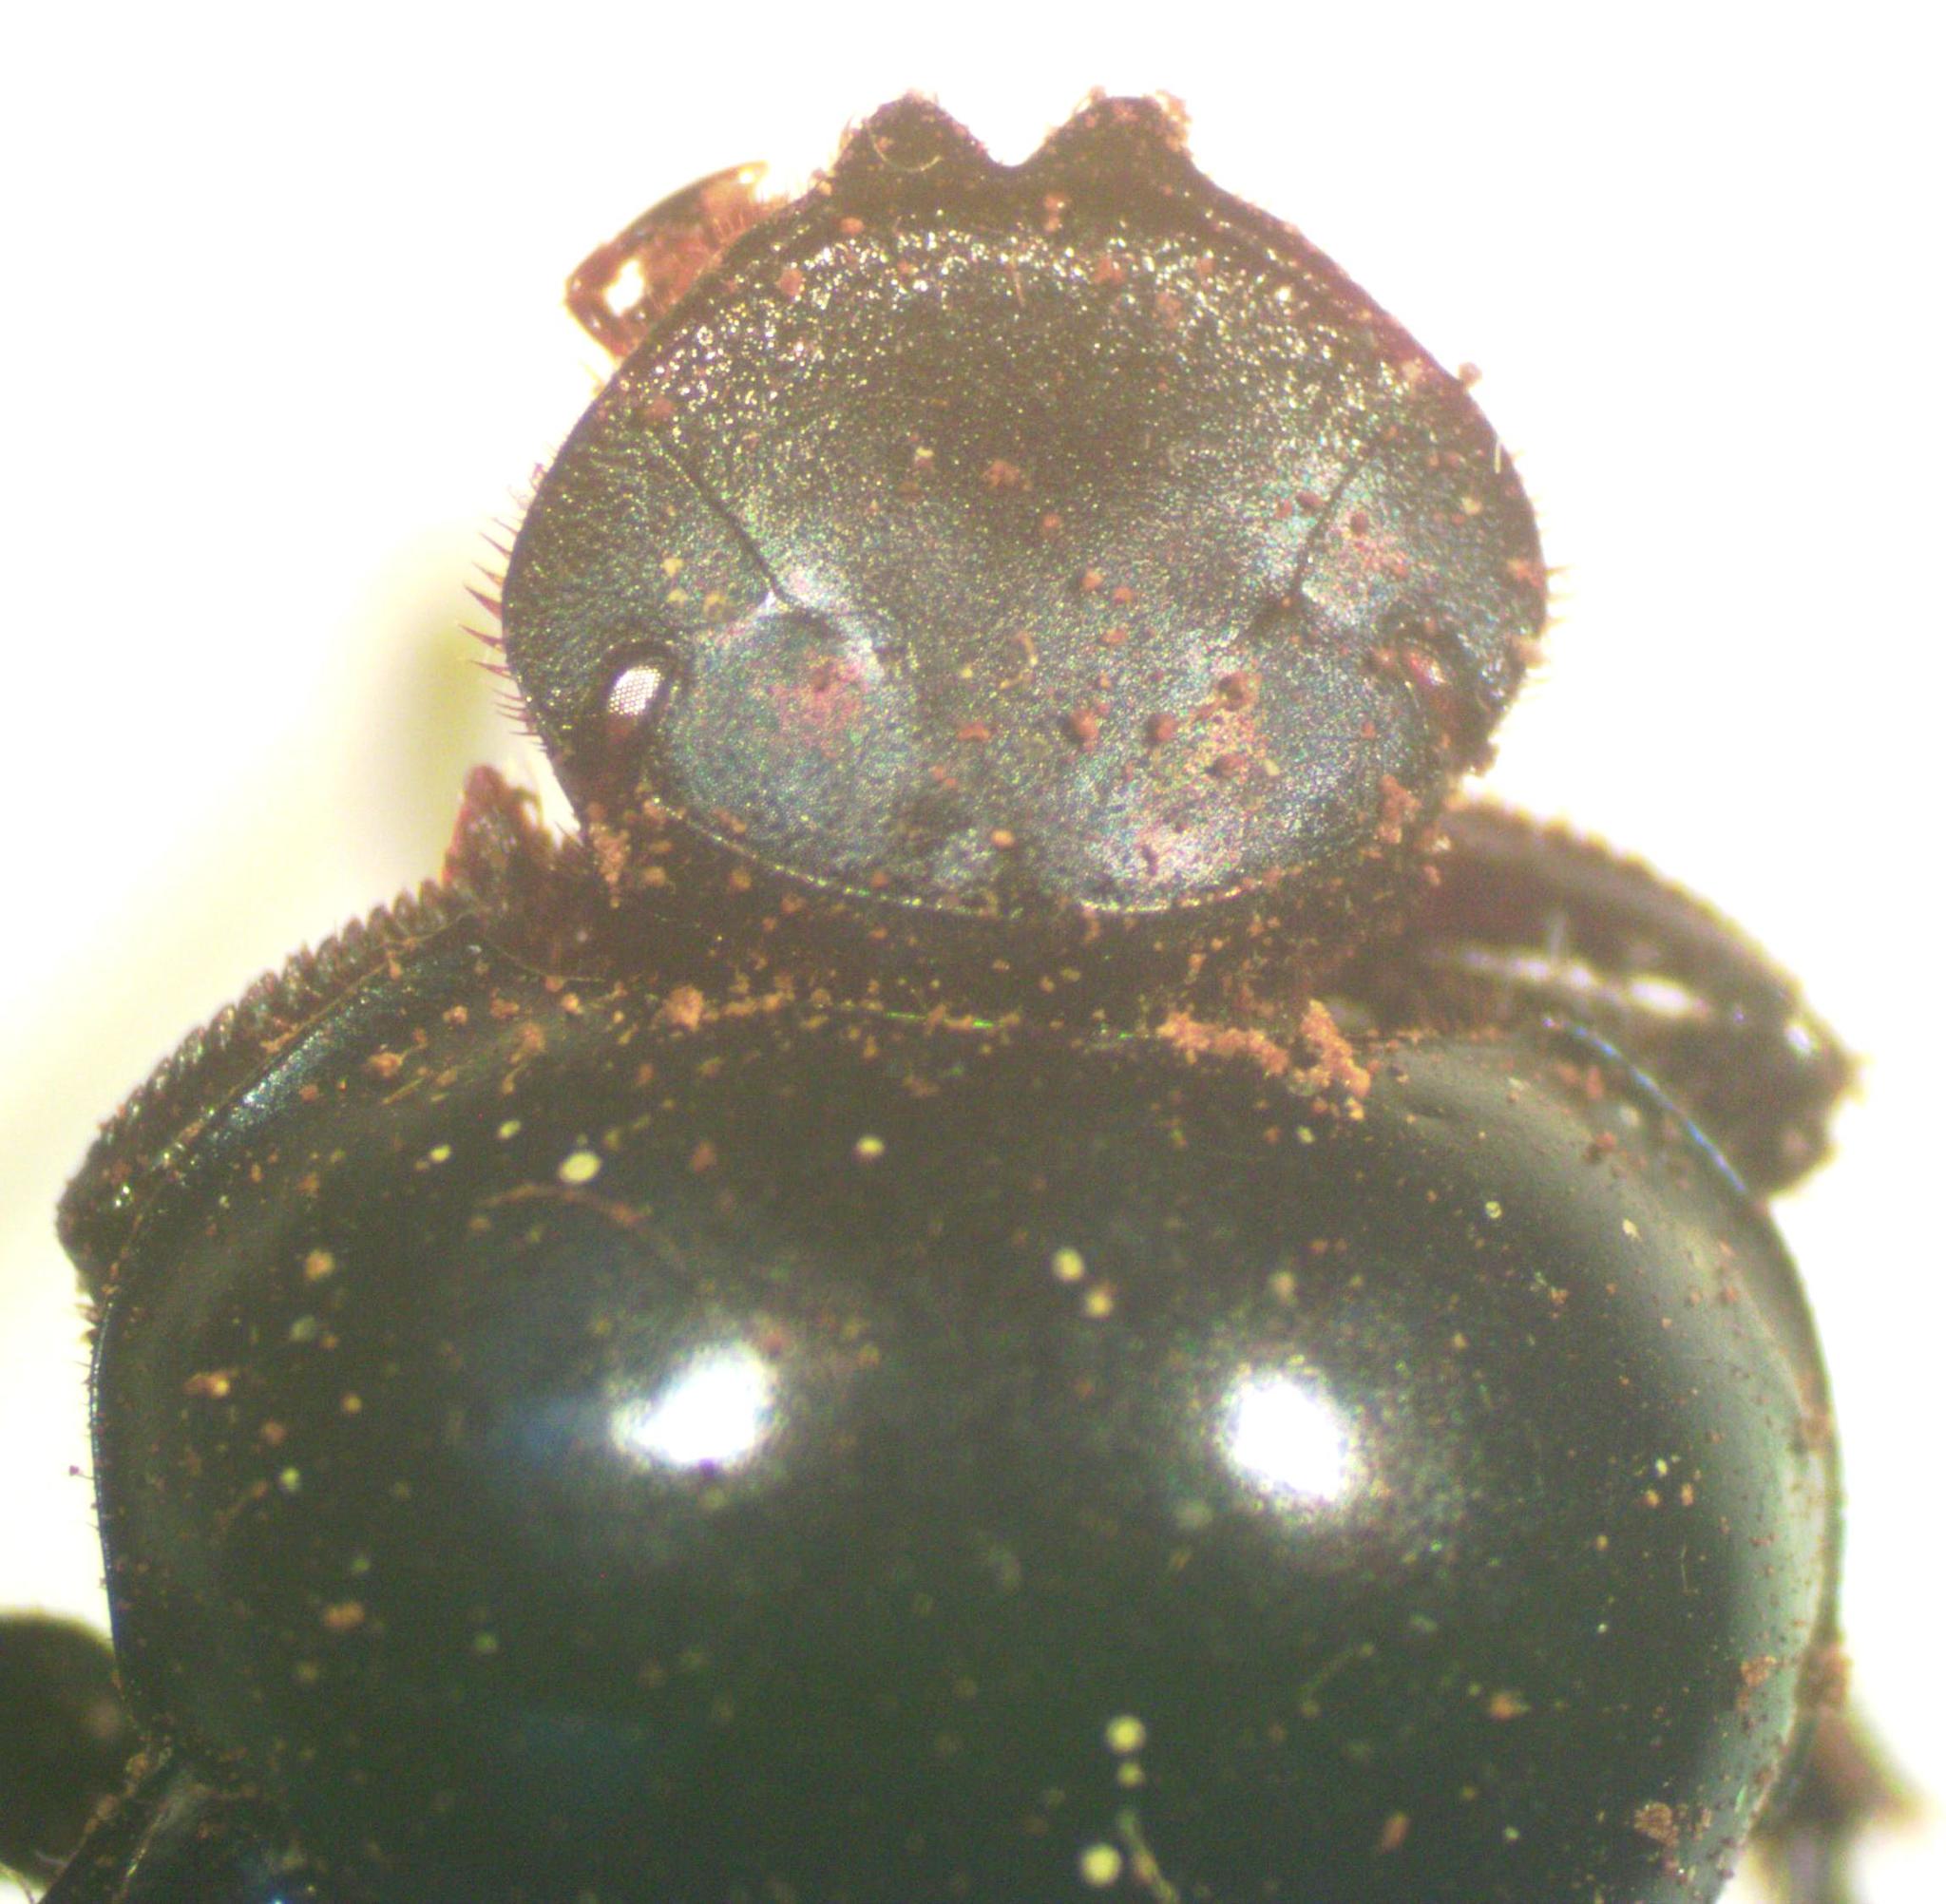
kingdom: Animalia
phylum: Arthropoda
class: Insecta
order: Coleoptera
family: Scarabaeidae
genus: Canthon
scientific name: Canthon indigaceus
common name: Tumblebug
